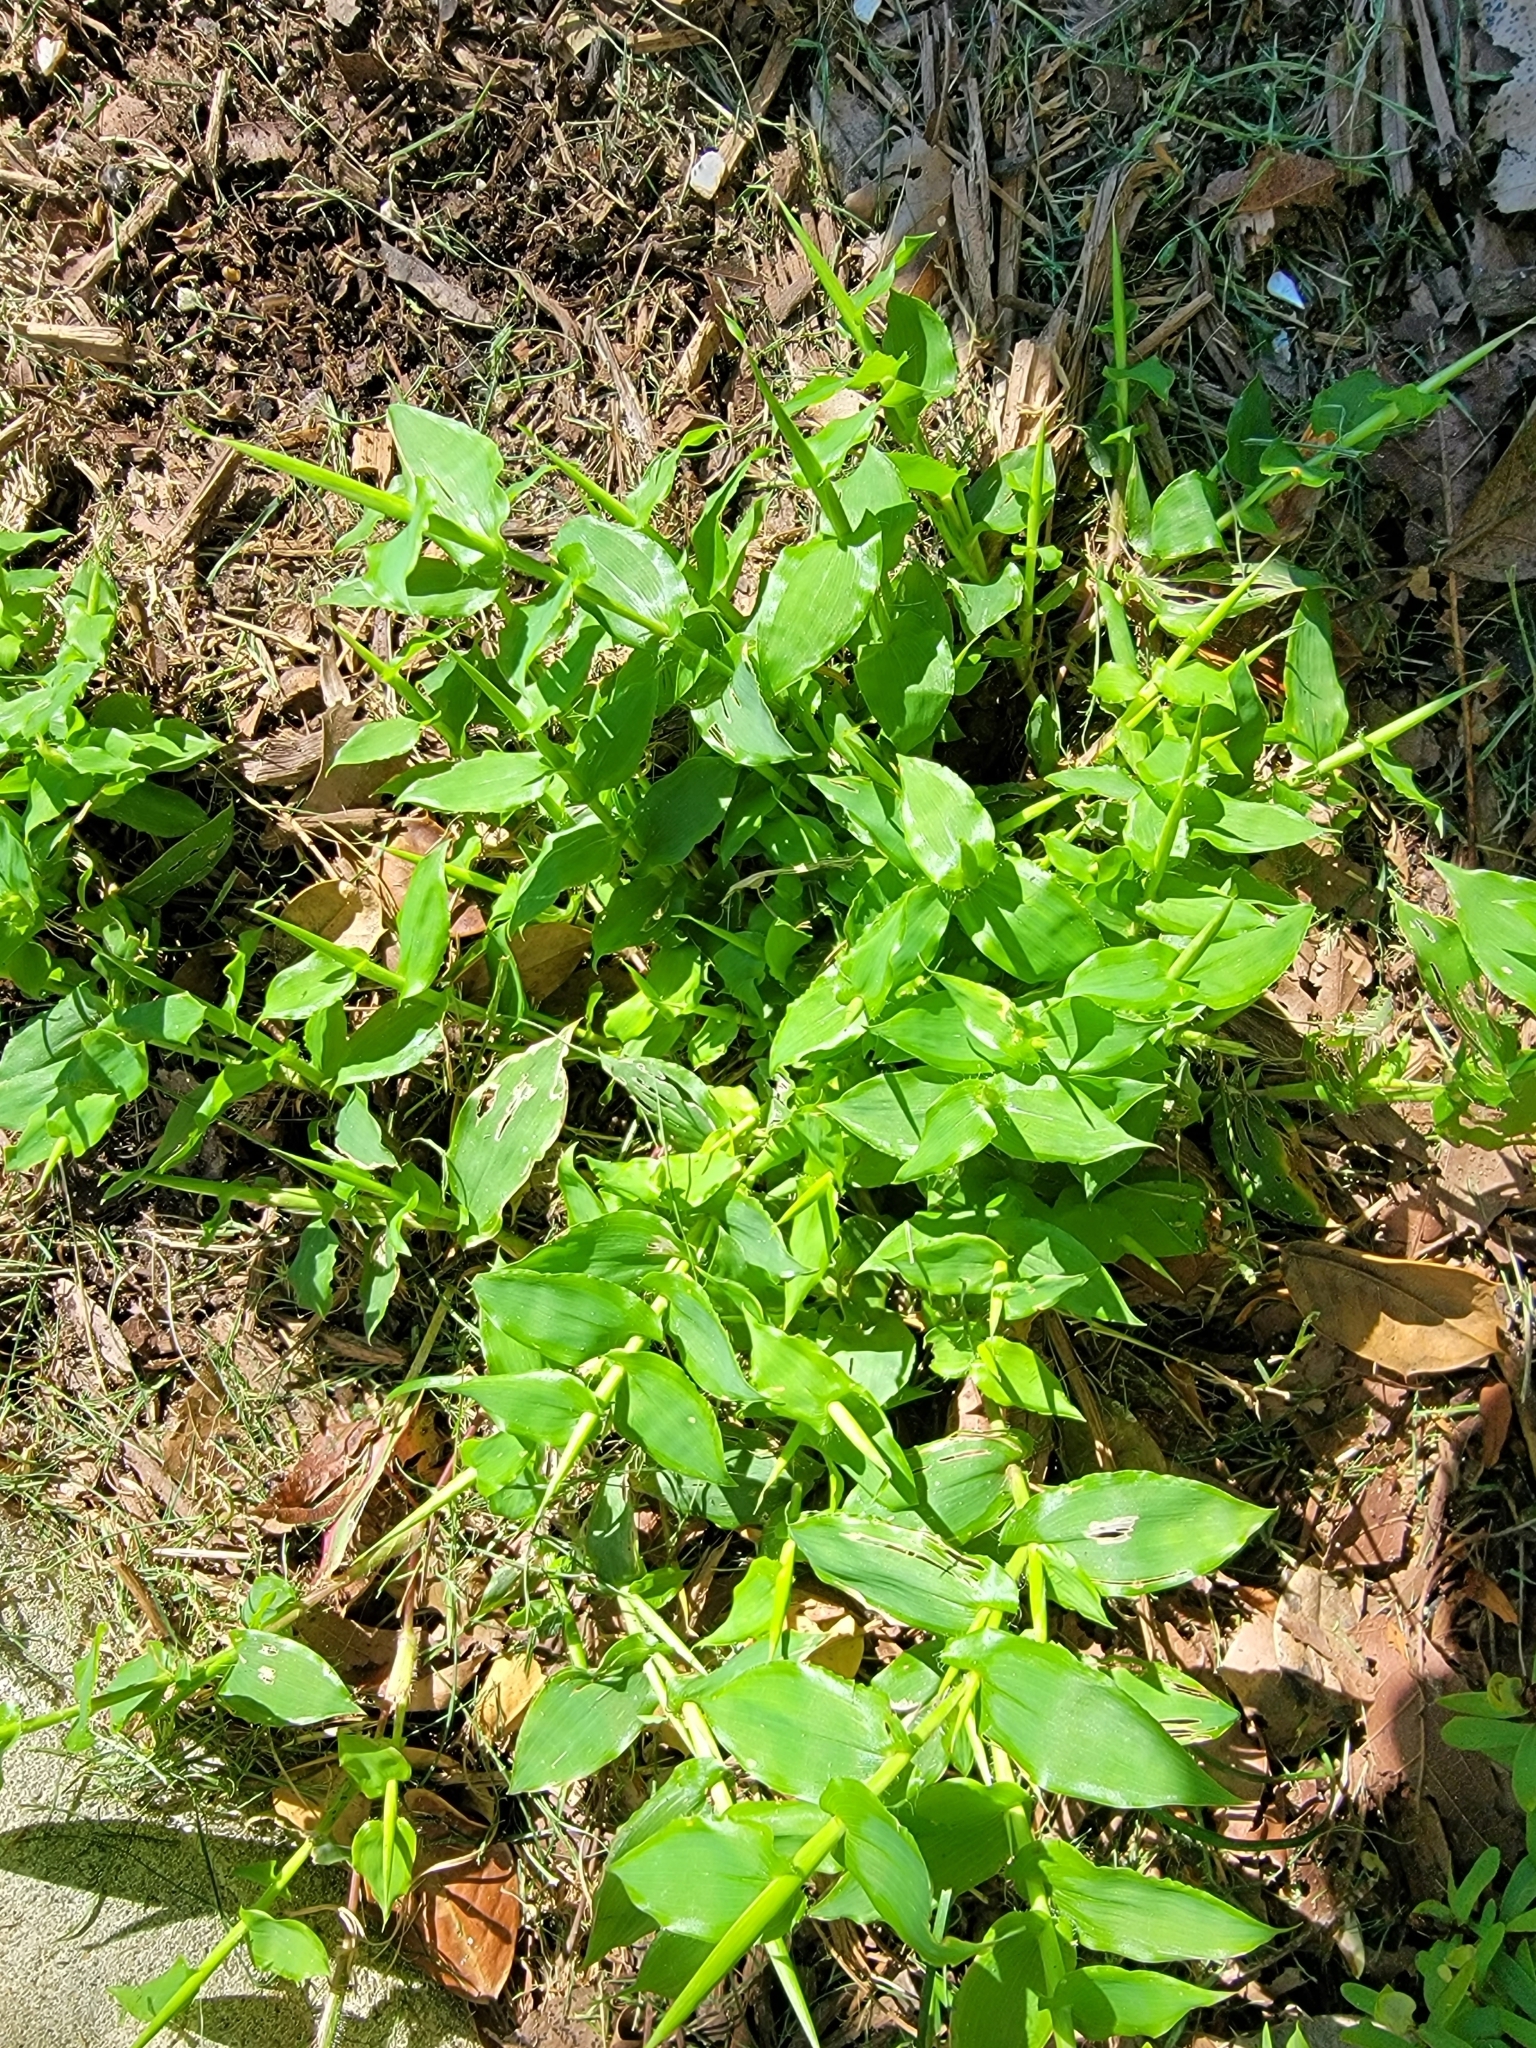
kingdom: Plantae
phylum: Tracheophyta
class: Liliopsida
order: Poales
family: Poaceae
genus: Arthraxon
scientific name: Arthraxon hispidus
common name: Small carpgrass
